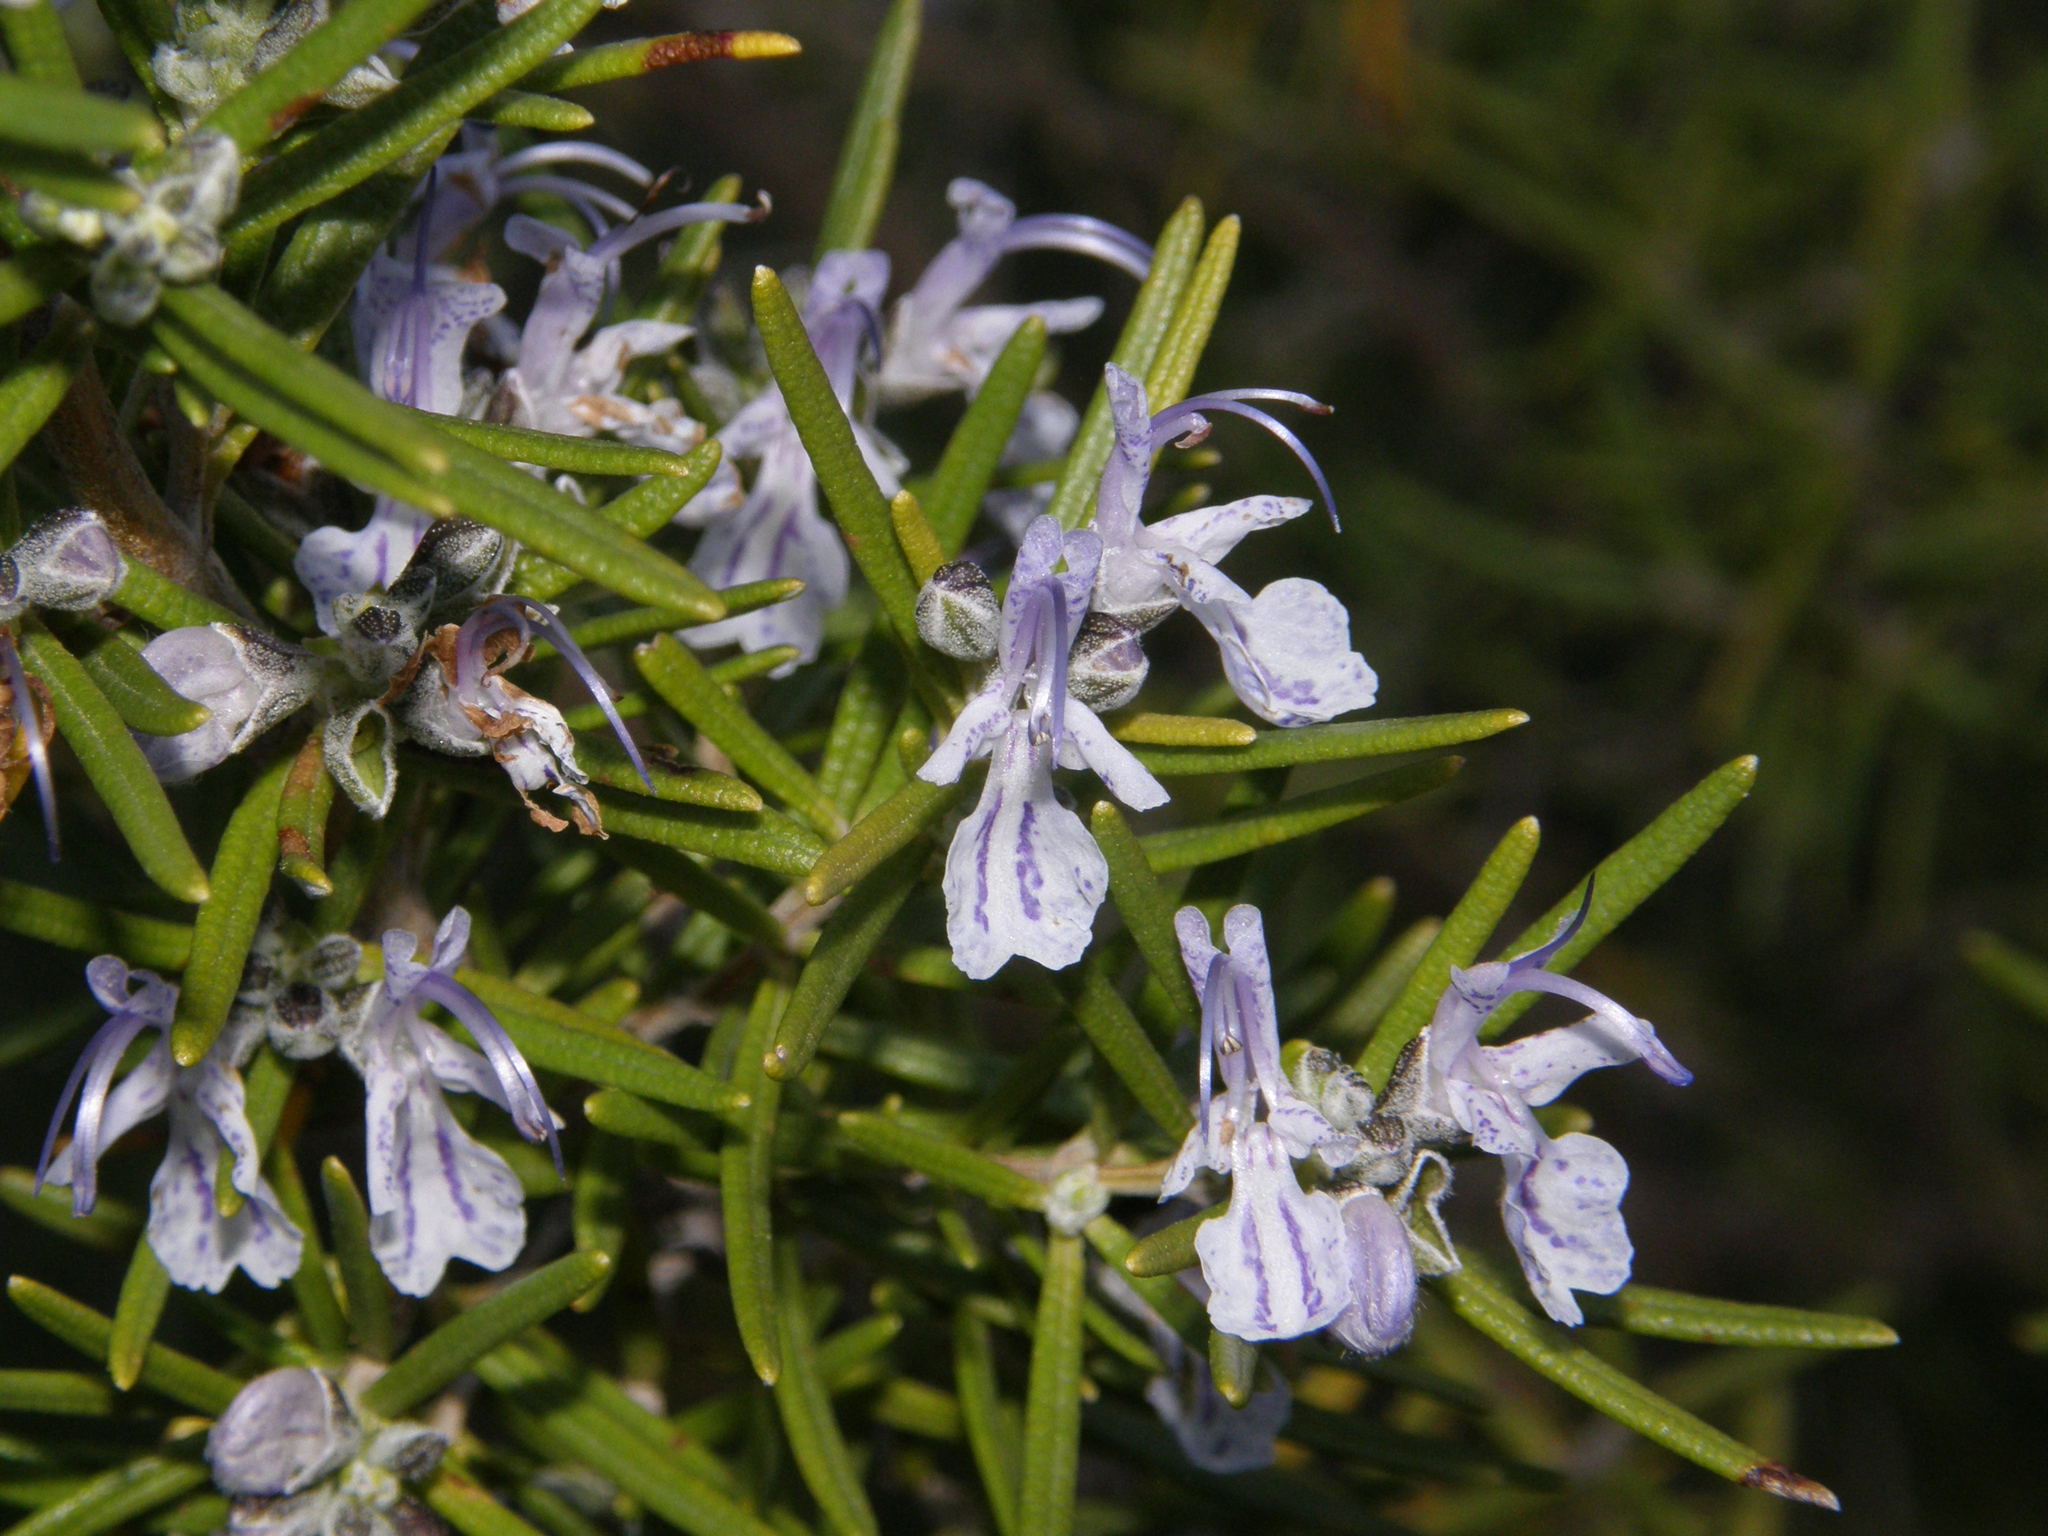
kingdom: Plantae
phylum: Tracheophyta
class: Magnoliopsida
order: Lamiales
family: Lamiaceae
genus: Salvia
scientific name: Salvia rosmarinus
